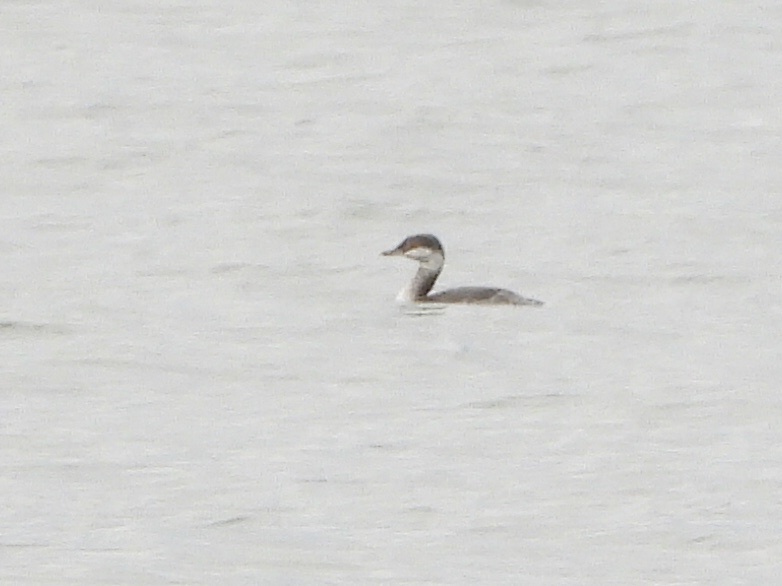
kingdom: Animalia
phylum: Chordata
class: Aves
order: Podicipediformes
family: Podicipedidae
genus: Podiceps
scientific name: Podiceps auritus
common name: Horned grebe
